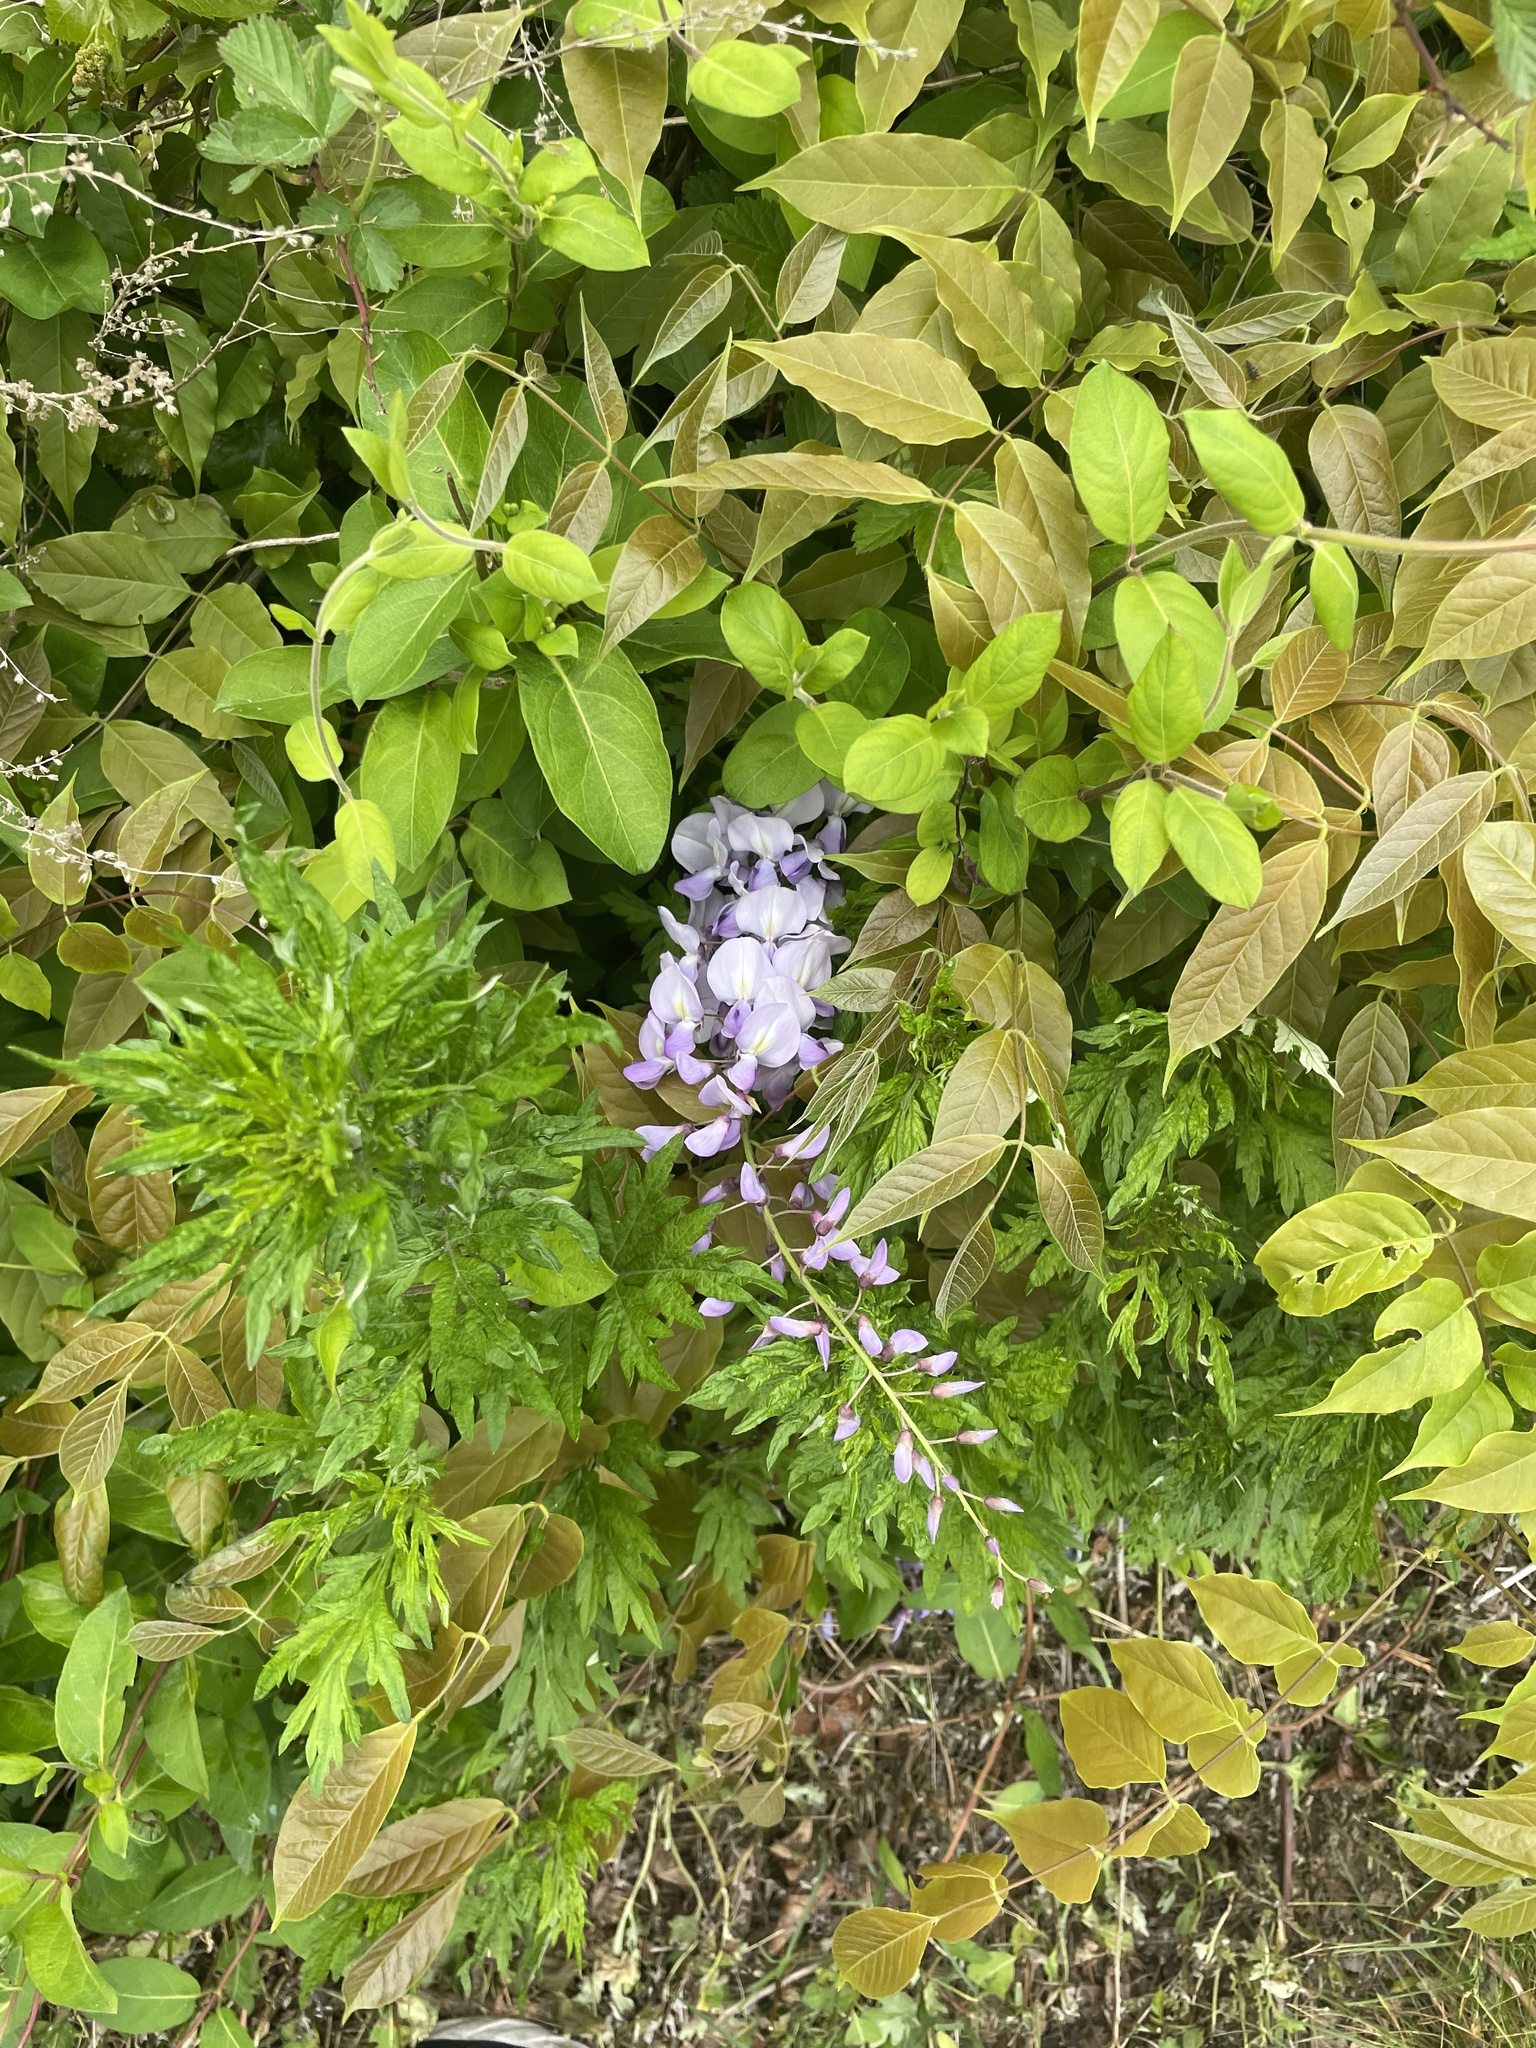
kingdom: Plantae
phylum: Tracheophyta
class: Magnoliopsida
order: Fabales
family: Fabaceae
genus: Wisteria
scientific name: Wisteria sinensis
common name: Chinese wisteria
